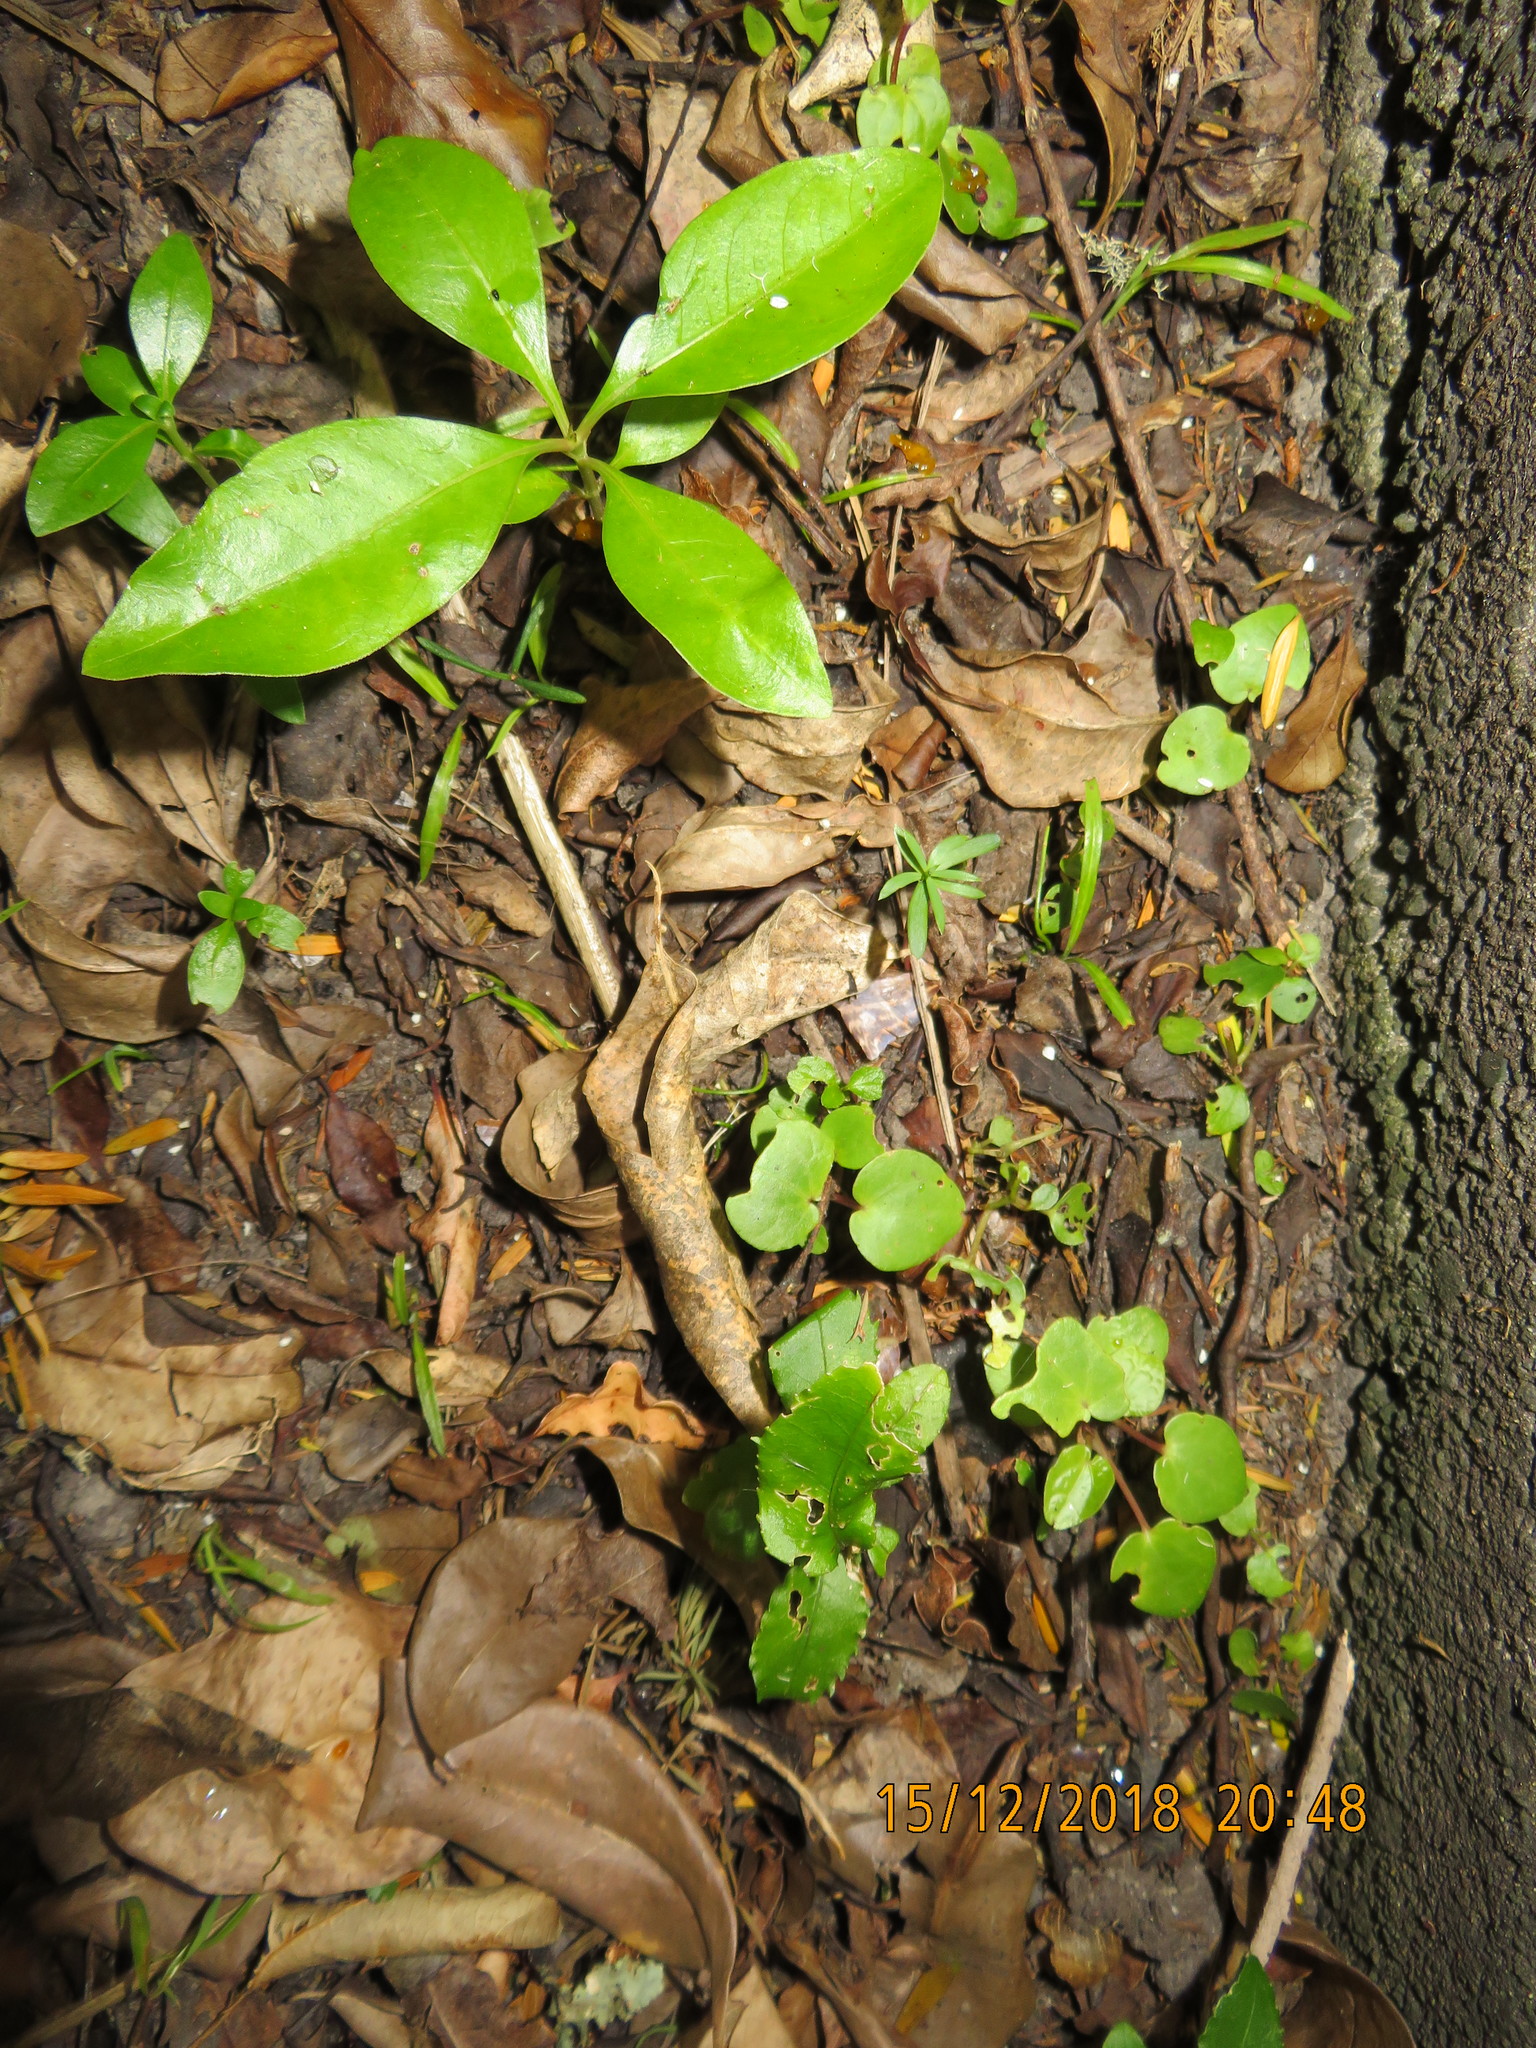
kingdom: Plantae
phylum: Tracheophyta
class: Magnoliopsida
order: Gentianales
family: Rubiaceae
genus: Coprosma
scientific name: Coprosma lucida
